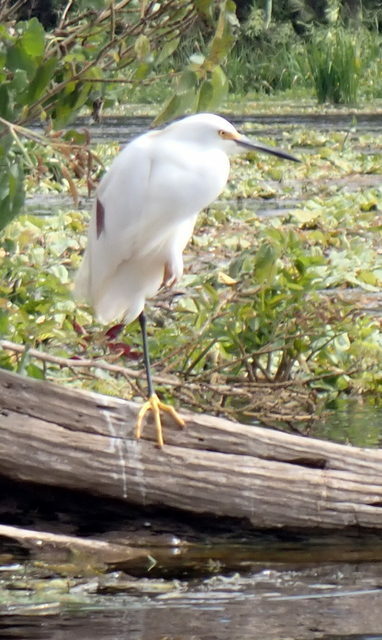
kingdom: Animalia
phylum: Chordata
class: Aves
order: Pelecaniformes
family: Ardeidae
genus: Egretta
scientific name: Egretta thula
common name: Snowy egret
